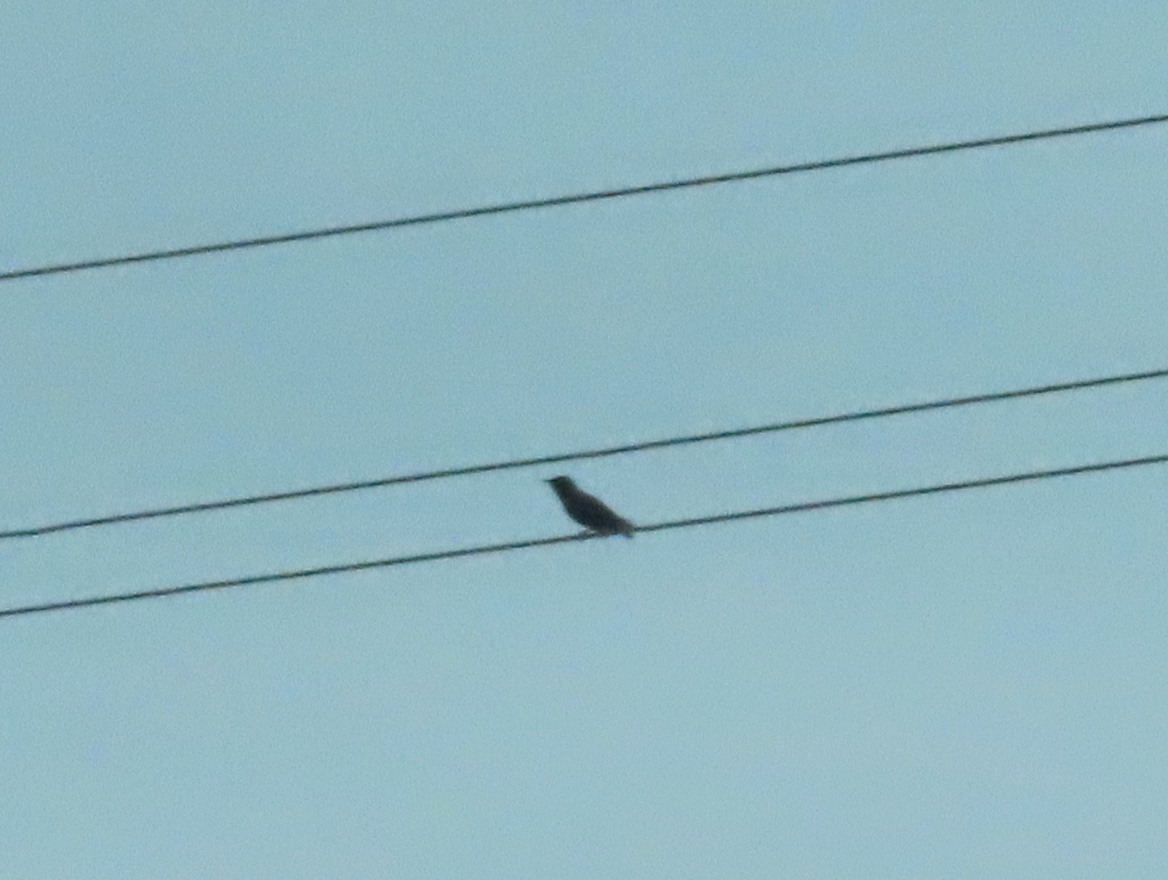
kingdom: Animalia
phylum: Chordata
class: Aves
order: Passeriformes
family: Sturnidae
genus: Sturnus
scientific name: Sturnus vulgaris
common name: Common starling
